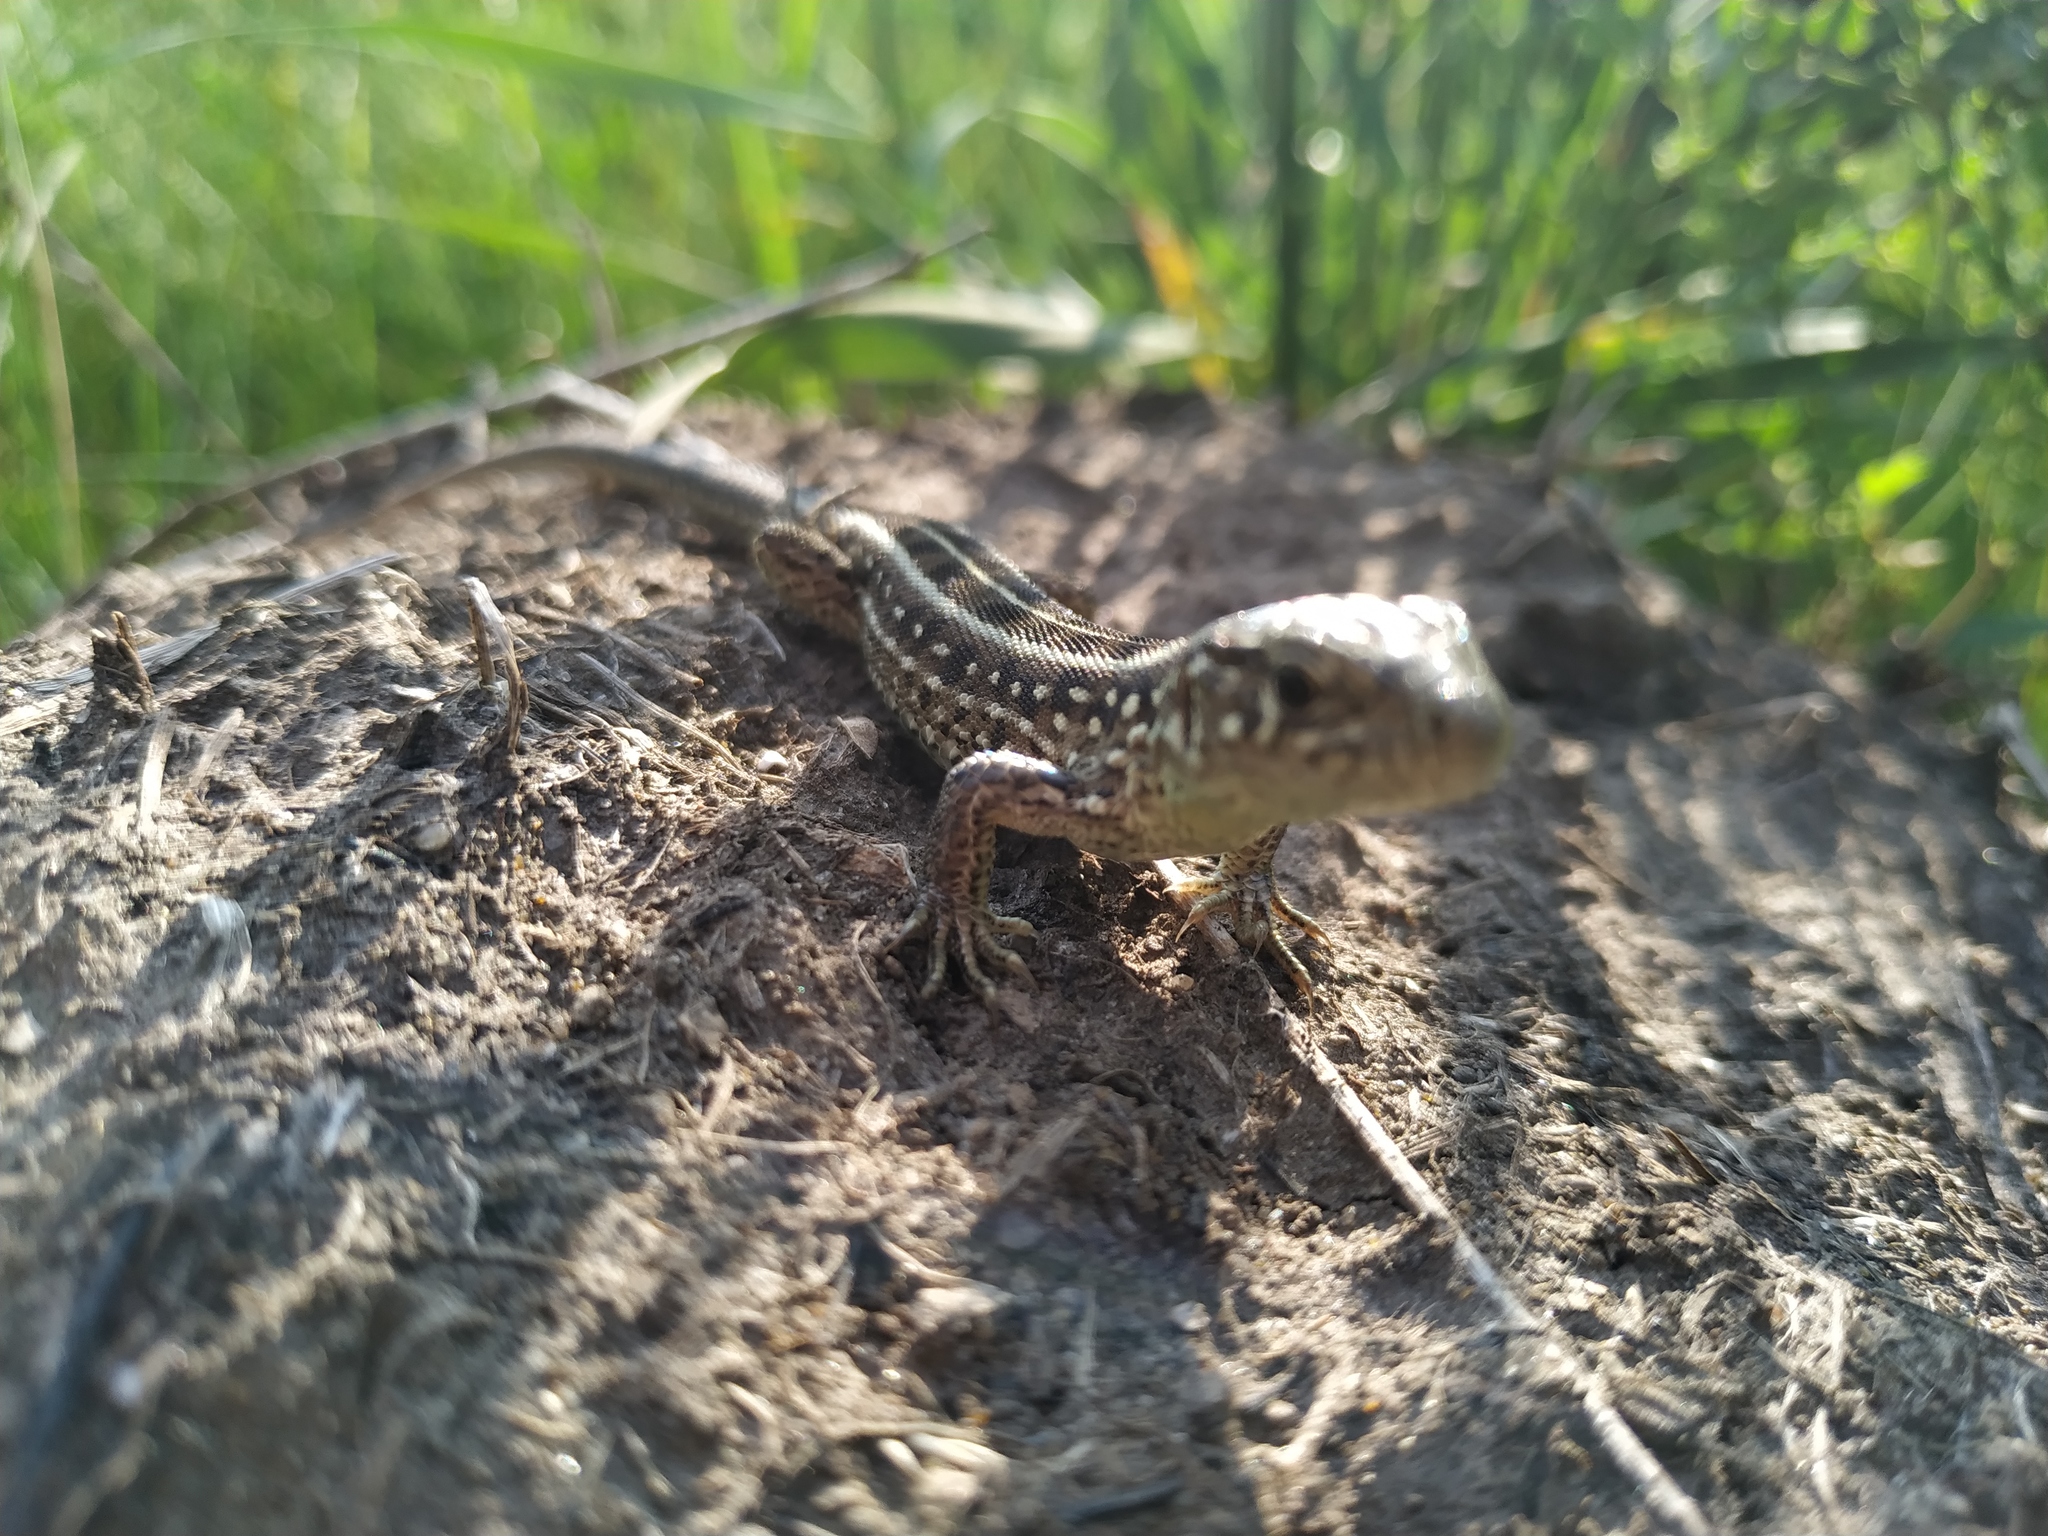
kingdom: Animalia
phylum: Chordata
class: Squamata
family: Lacertidae
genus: Lacerta
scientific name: Lacerta agilis
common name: Sand lizard
